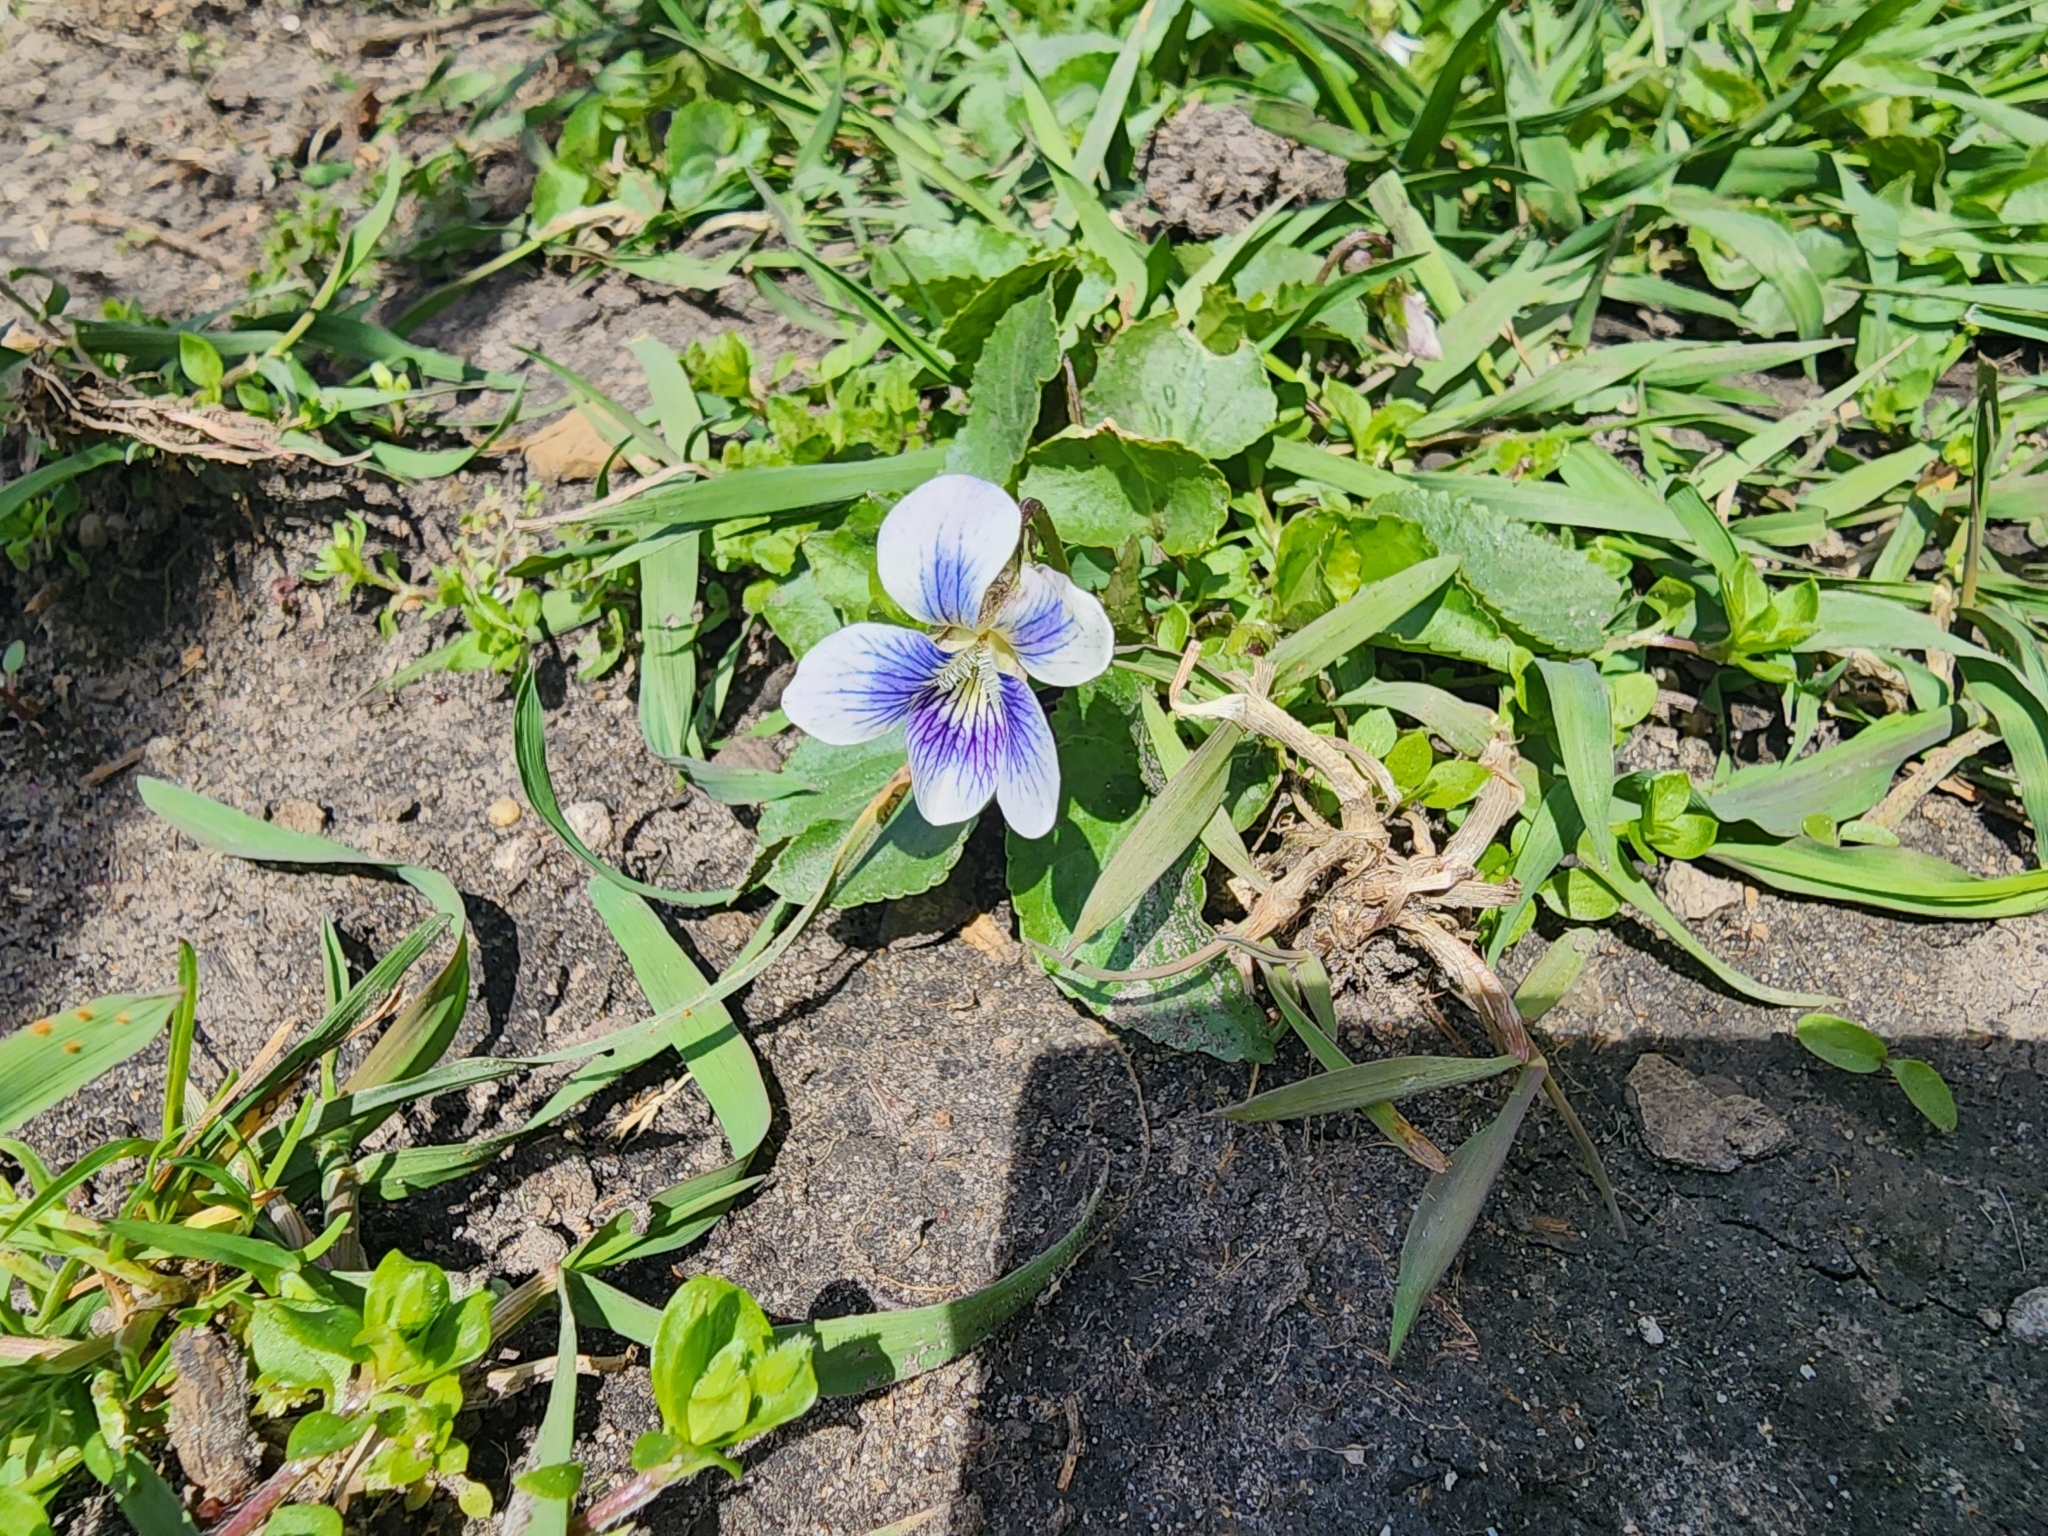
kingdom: Plantae
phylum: Tracheophyta
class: Magnoliopsida
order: Malpighiales
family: Violaceae
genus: Viola
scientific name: Viola sororia
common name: Dooryard violet
